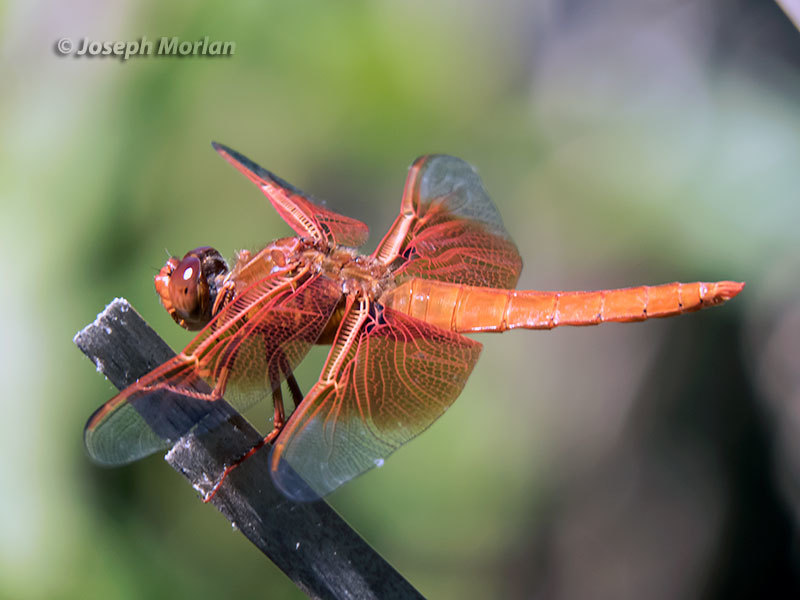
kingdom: Animalia
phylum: Arthropoda
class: Insecta
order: Odonata
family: Libellulidae
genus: Libellula
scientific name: Libellula saturata
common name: Flame skimmer
